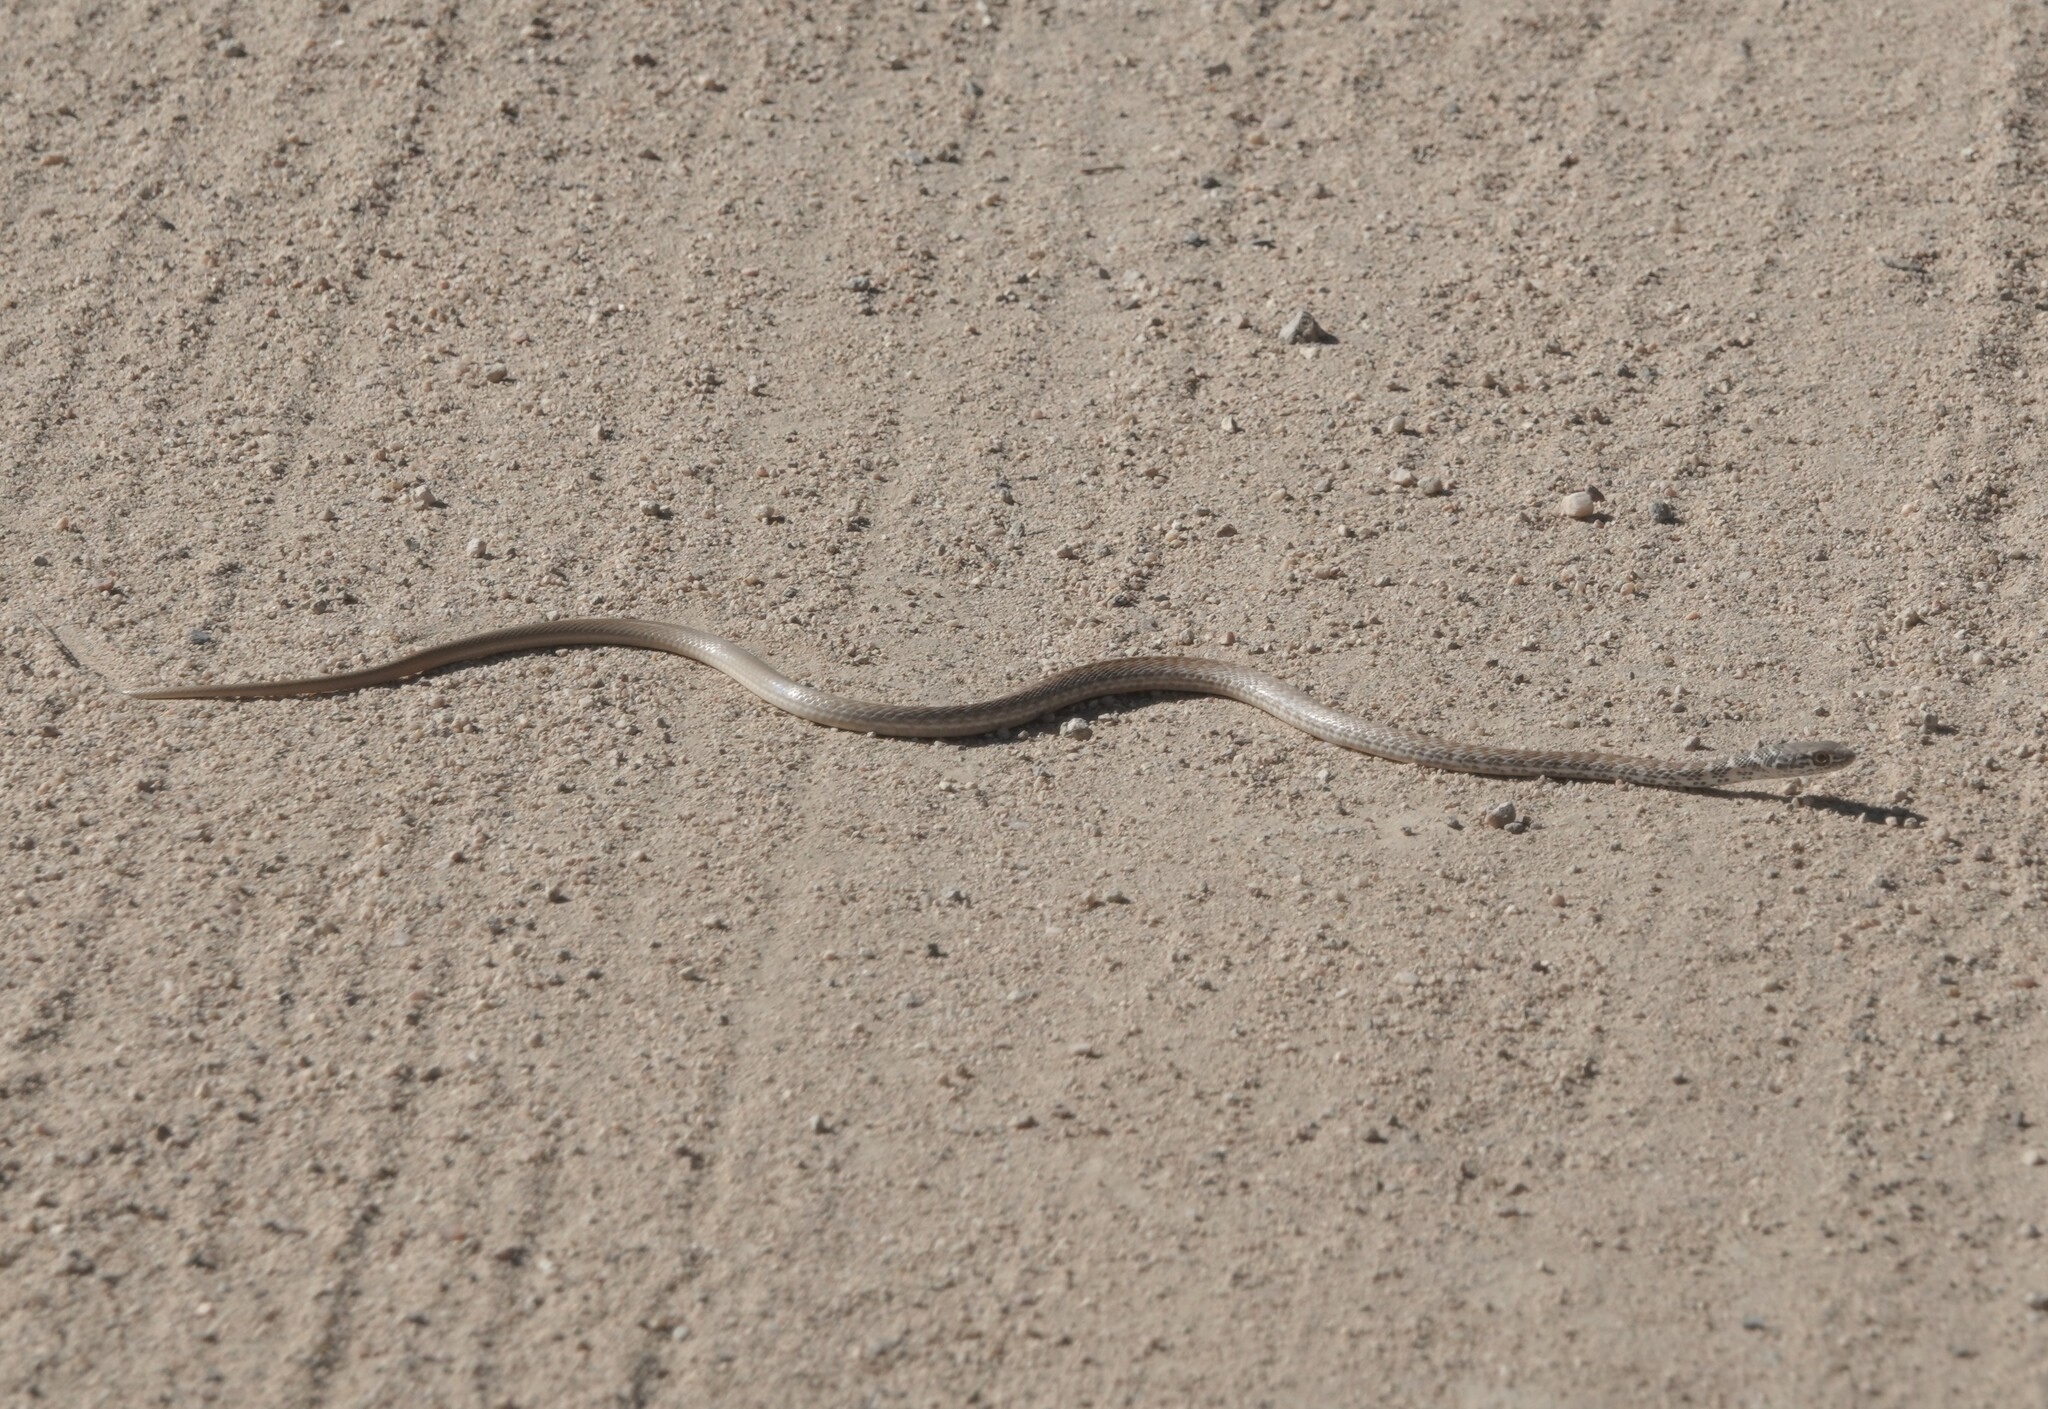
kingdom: Animalia
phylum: Chordata
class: Squamata
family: Colubridae
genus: Masticophis
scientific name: Masticophis flagellum
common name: Coachwhip
